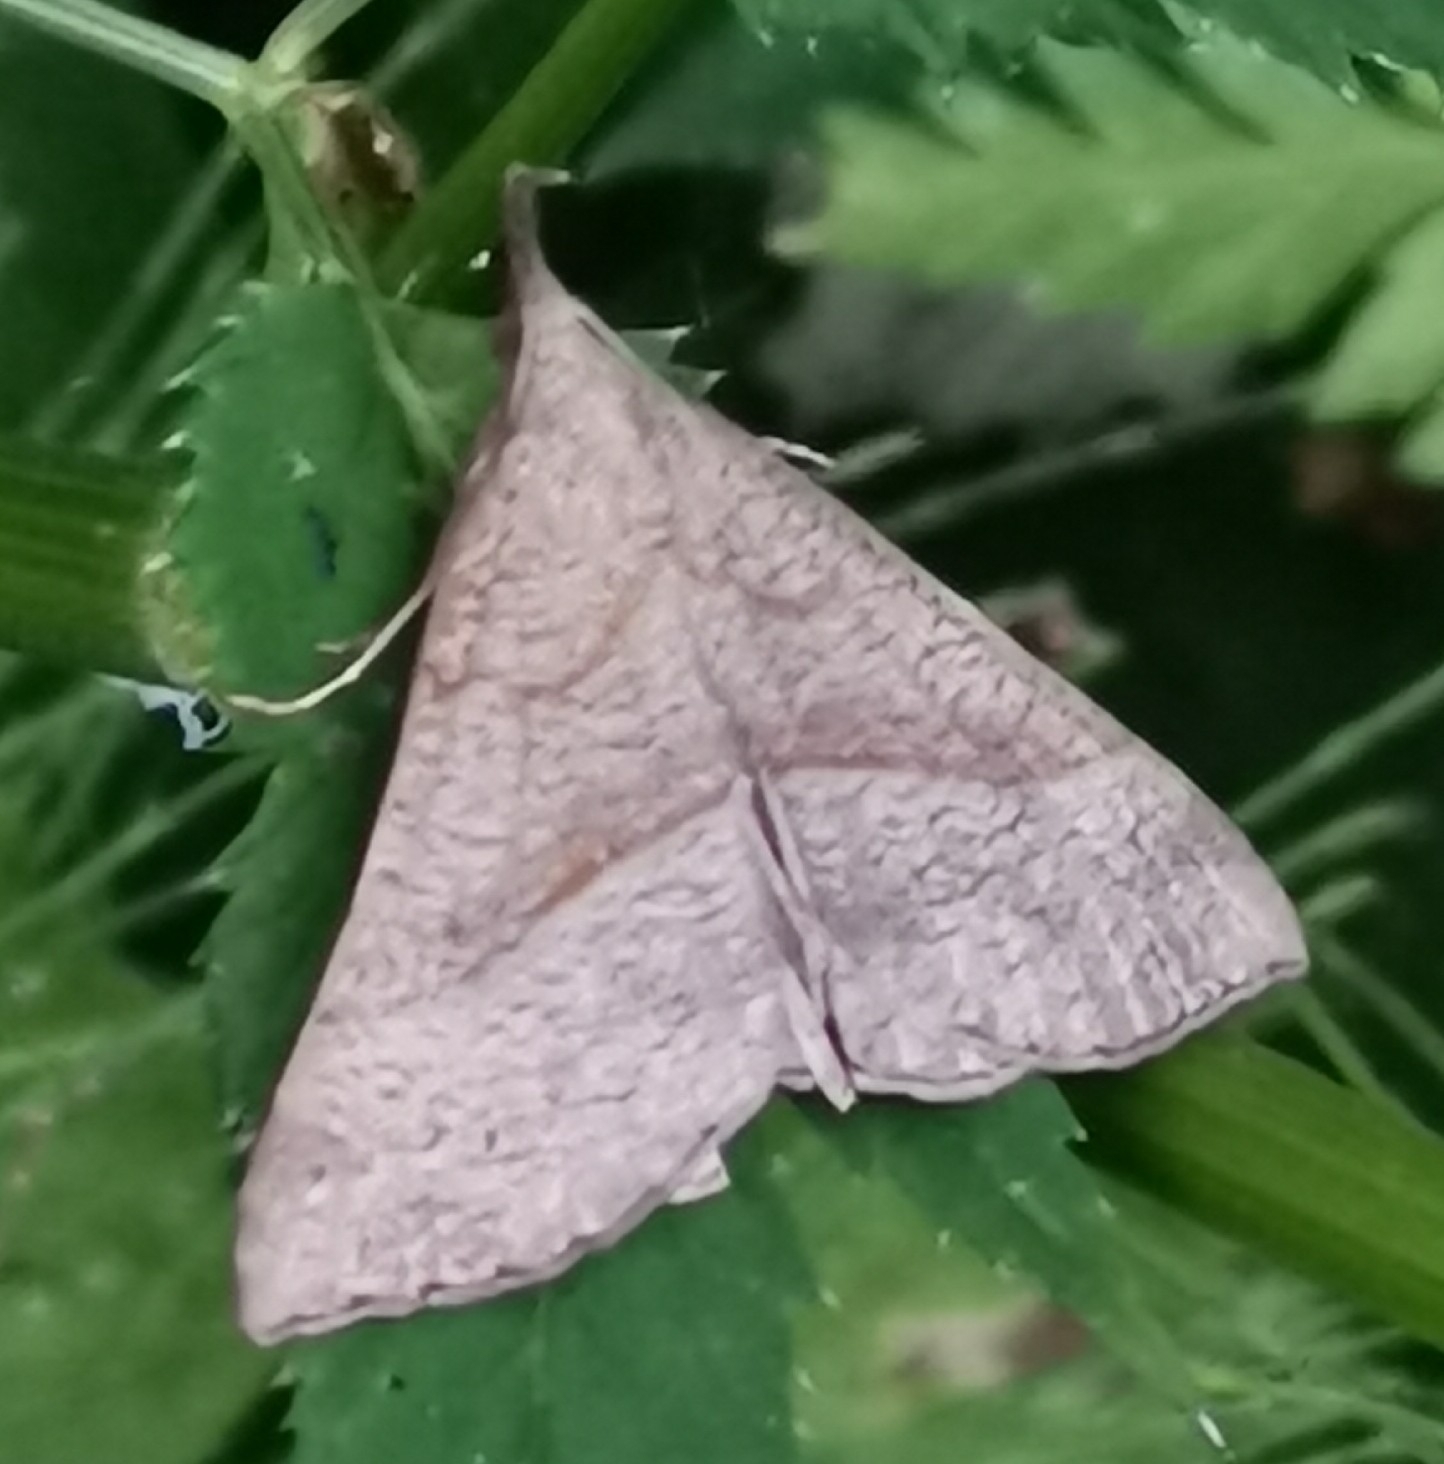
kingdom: Animalia
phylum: Arthropoda
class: Insecta
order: Lepidoptera
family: Erebidae
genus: Hypena
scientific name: Hypena proboscidalis
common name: Snout
